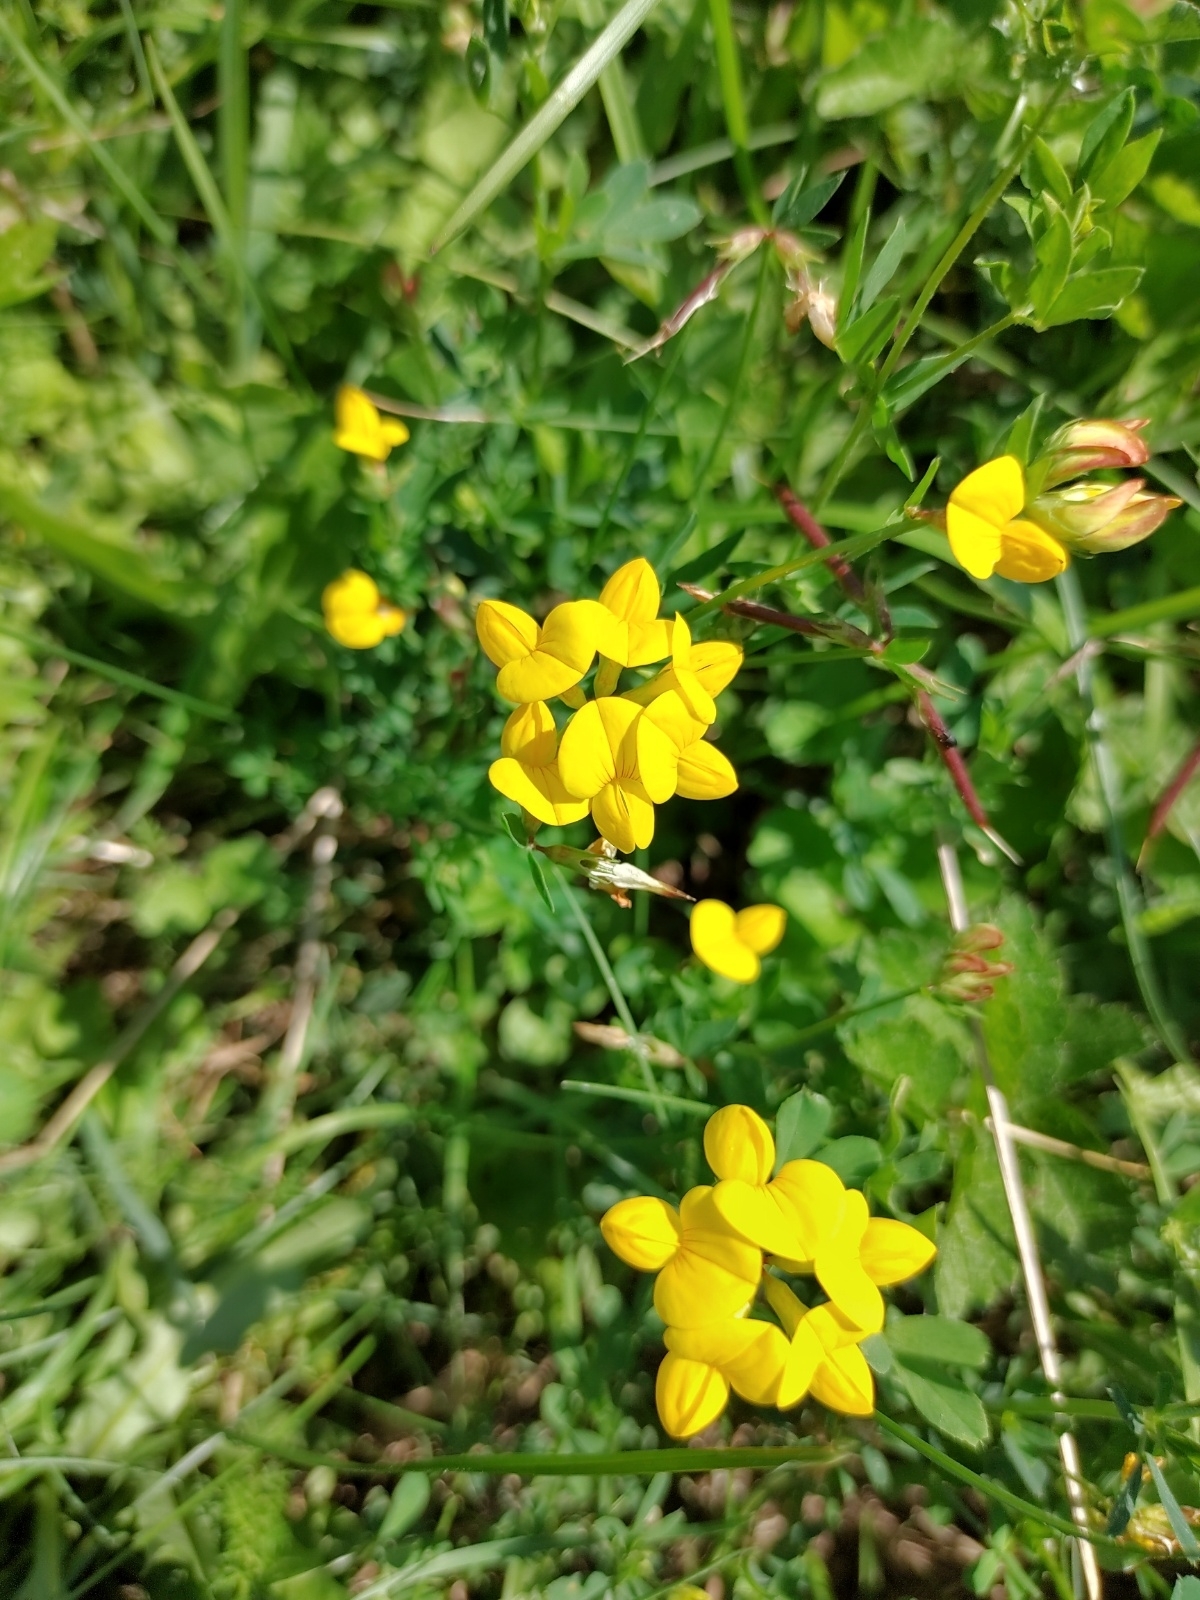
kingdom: Plantae
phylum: Tracheophyta
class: Magnoliopsida
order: Fabales
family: Fabaceae
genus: Lotus
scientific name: Lotus corniculatus
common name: Common bird's-foot-trefoil
